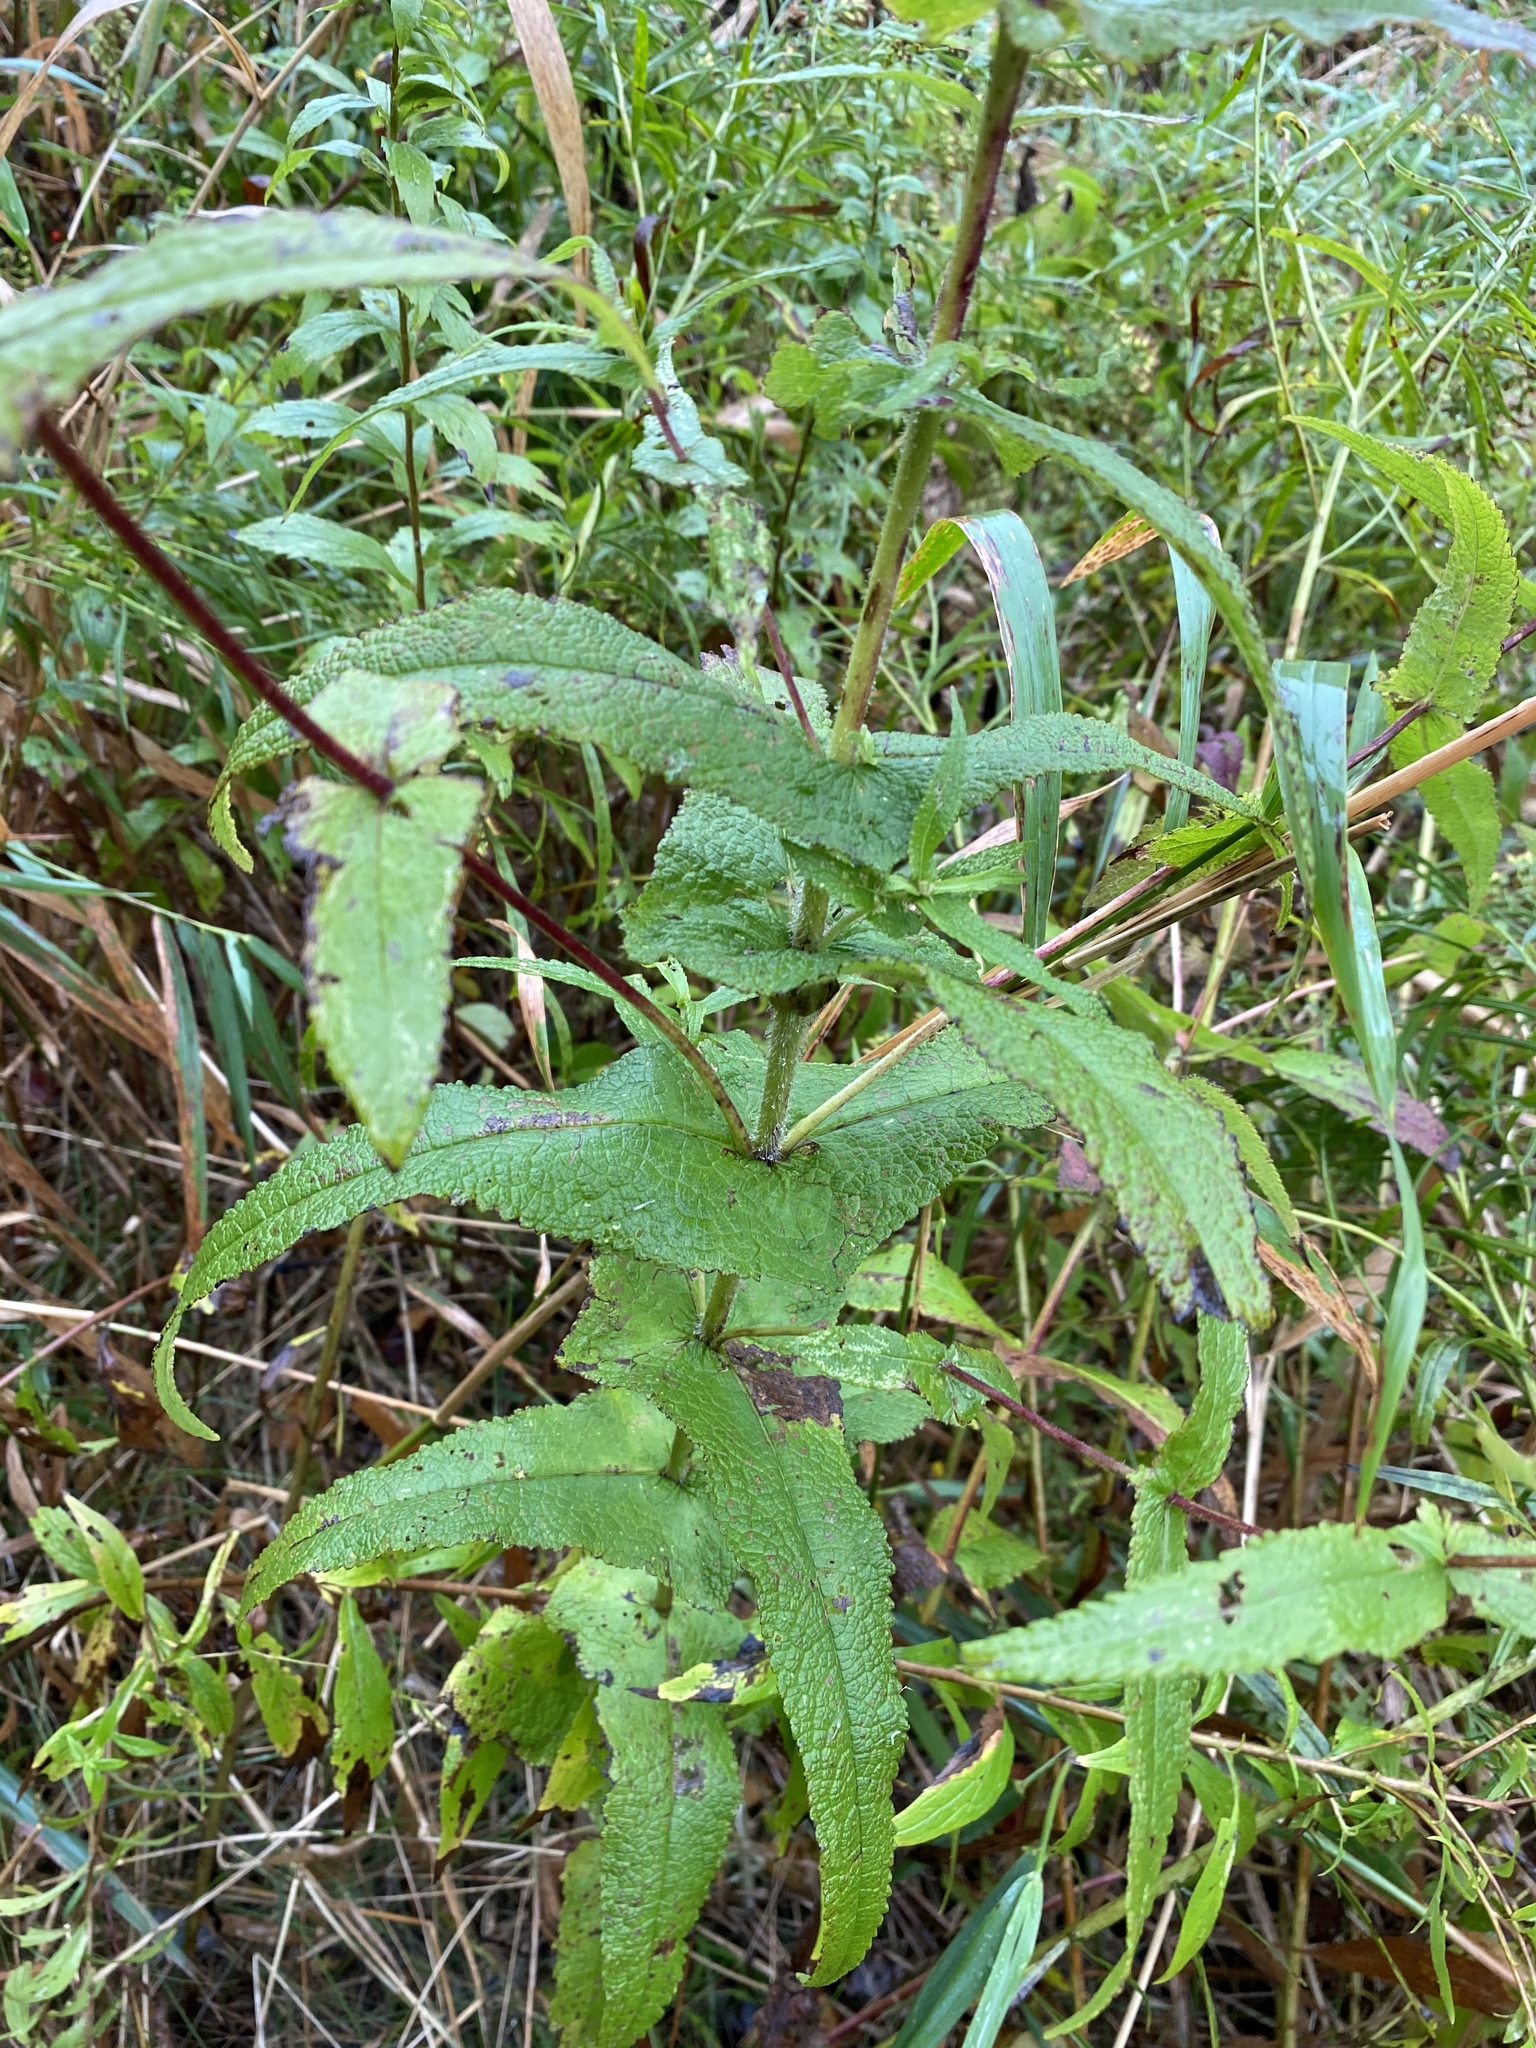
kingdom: Plantae
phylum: Tracheophyta
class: Magnoliopsida
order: Asterales
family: Asteraceae
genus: Eupatorium
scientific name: Eupatorium perfoliatum
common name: Boneset
